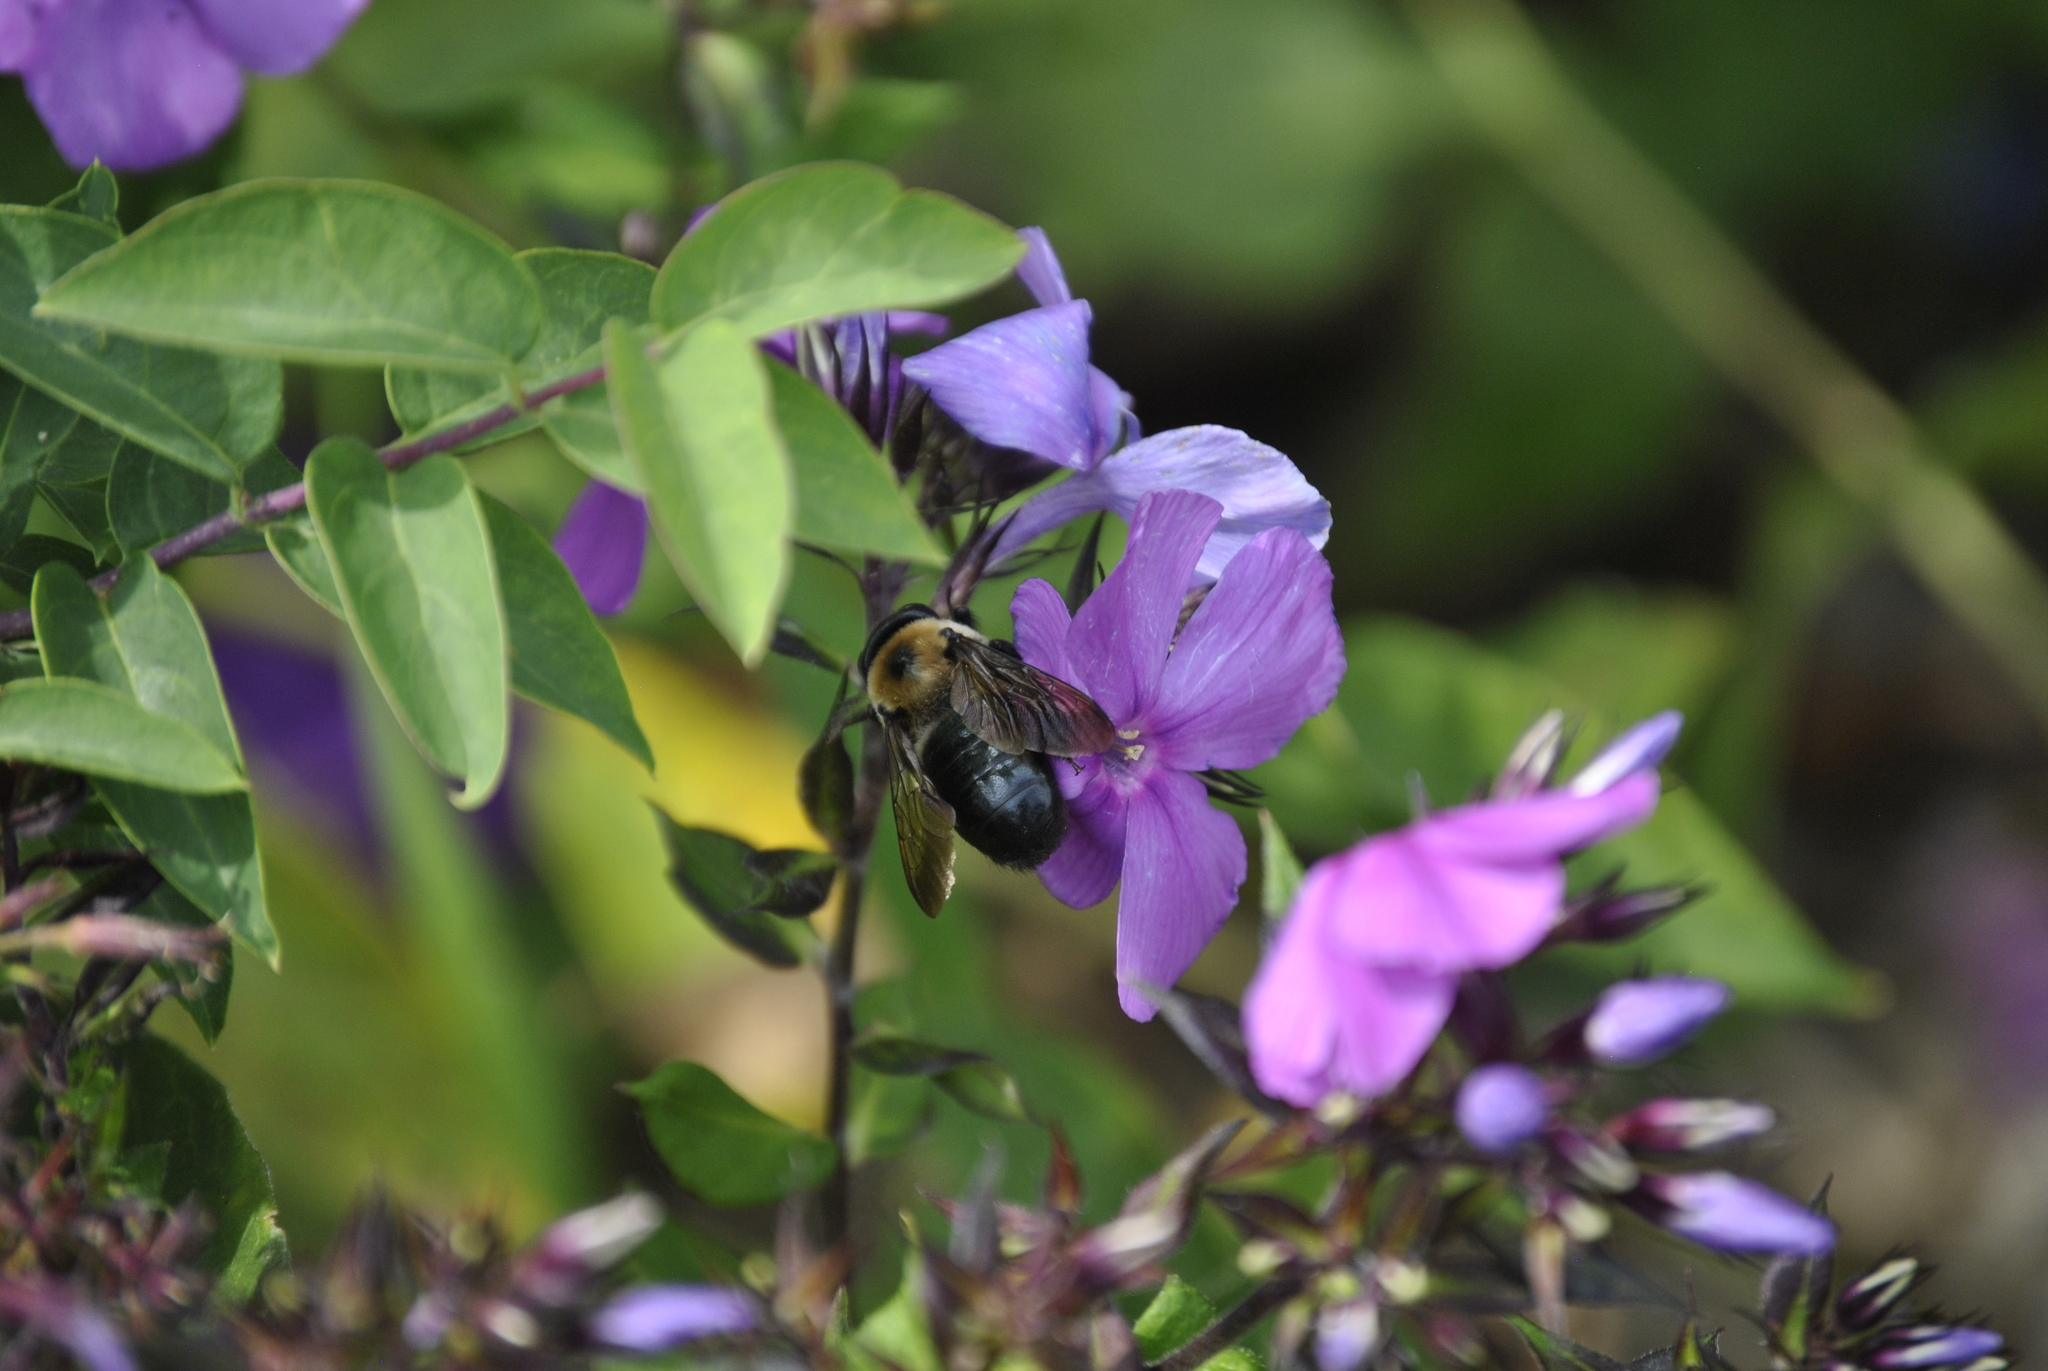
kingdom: Animalia
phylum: Arthropoda
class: Insecta
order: Hymenoptera
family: Apidae
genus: Xylocopa
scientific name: Xylocopa virginica
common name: Carpenter bee
